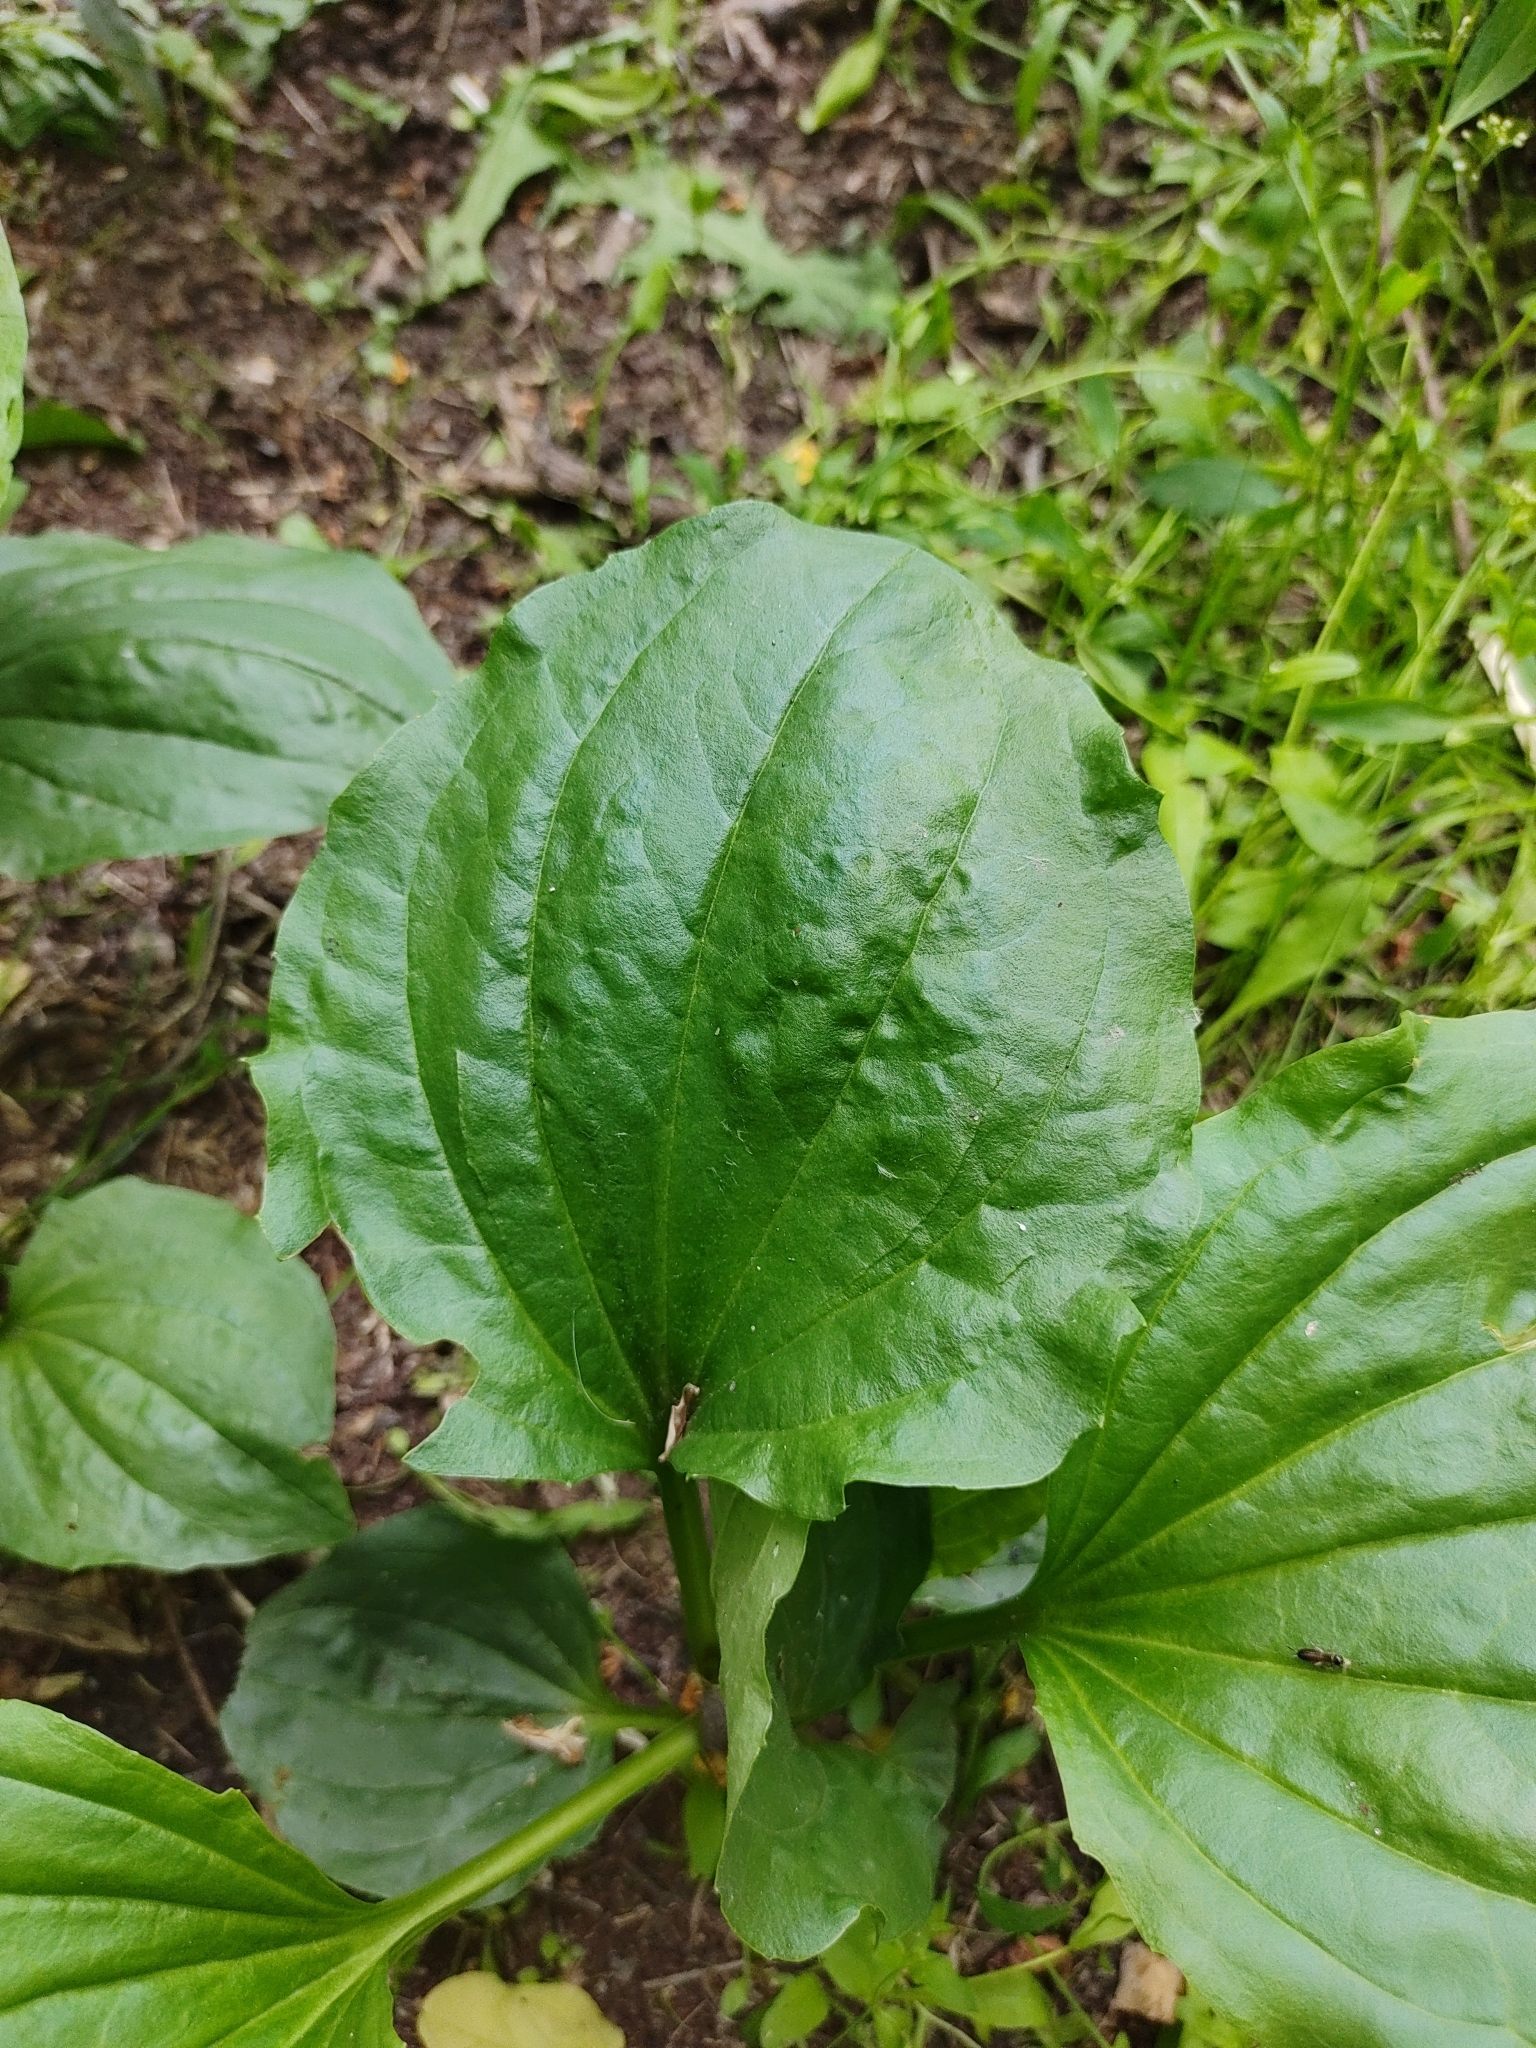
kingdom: Plantae
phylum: Tracheophyta
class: Magnoliopsida
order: Lamiales
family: Plantaginaceae
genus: Plantago
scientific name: Plantago major
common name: Common plantain
